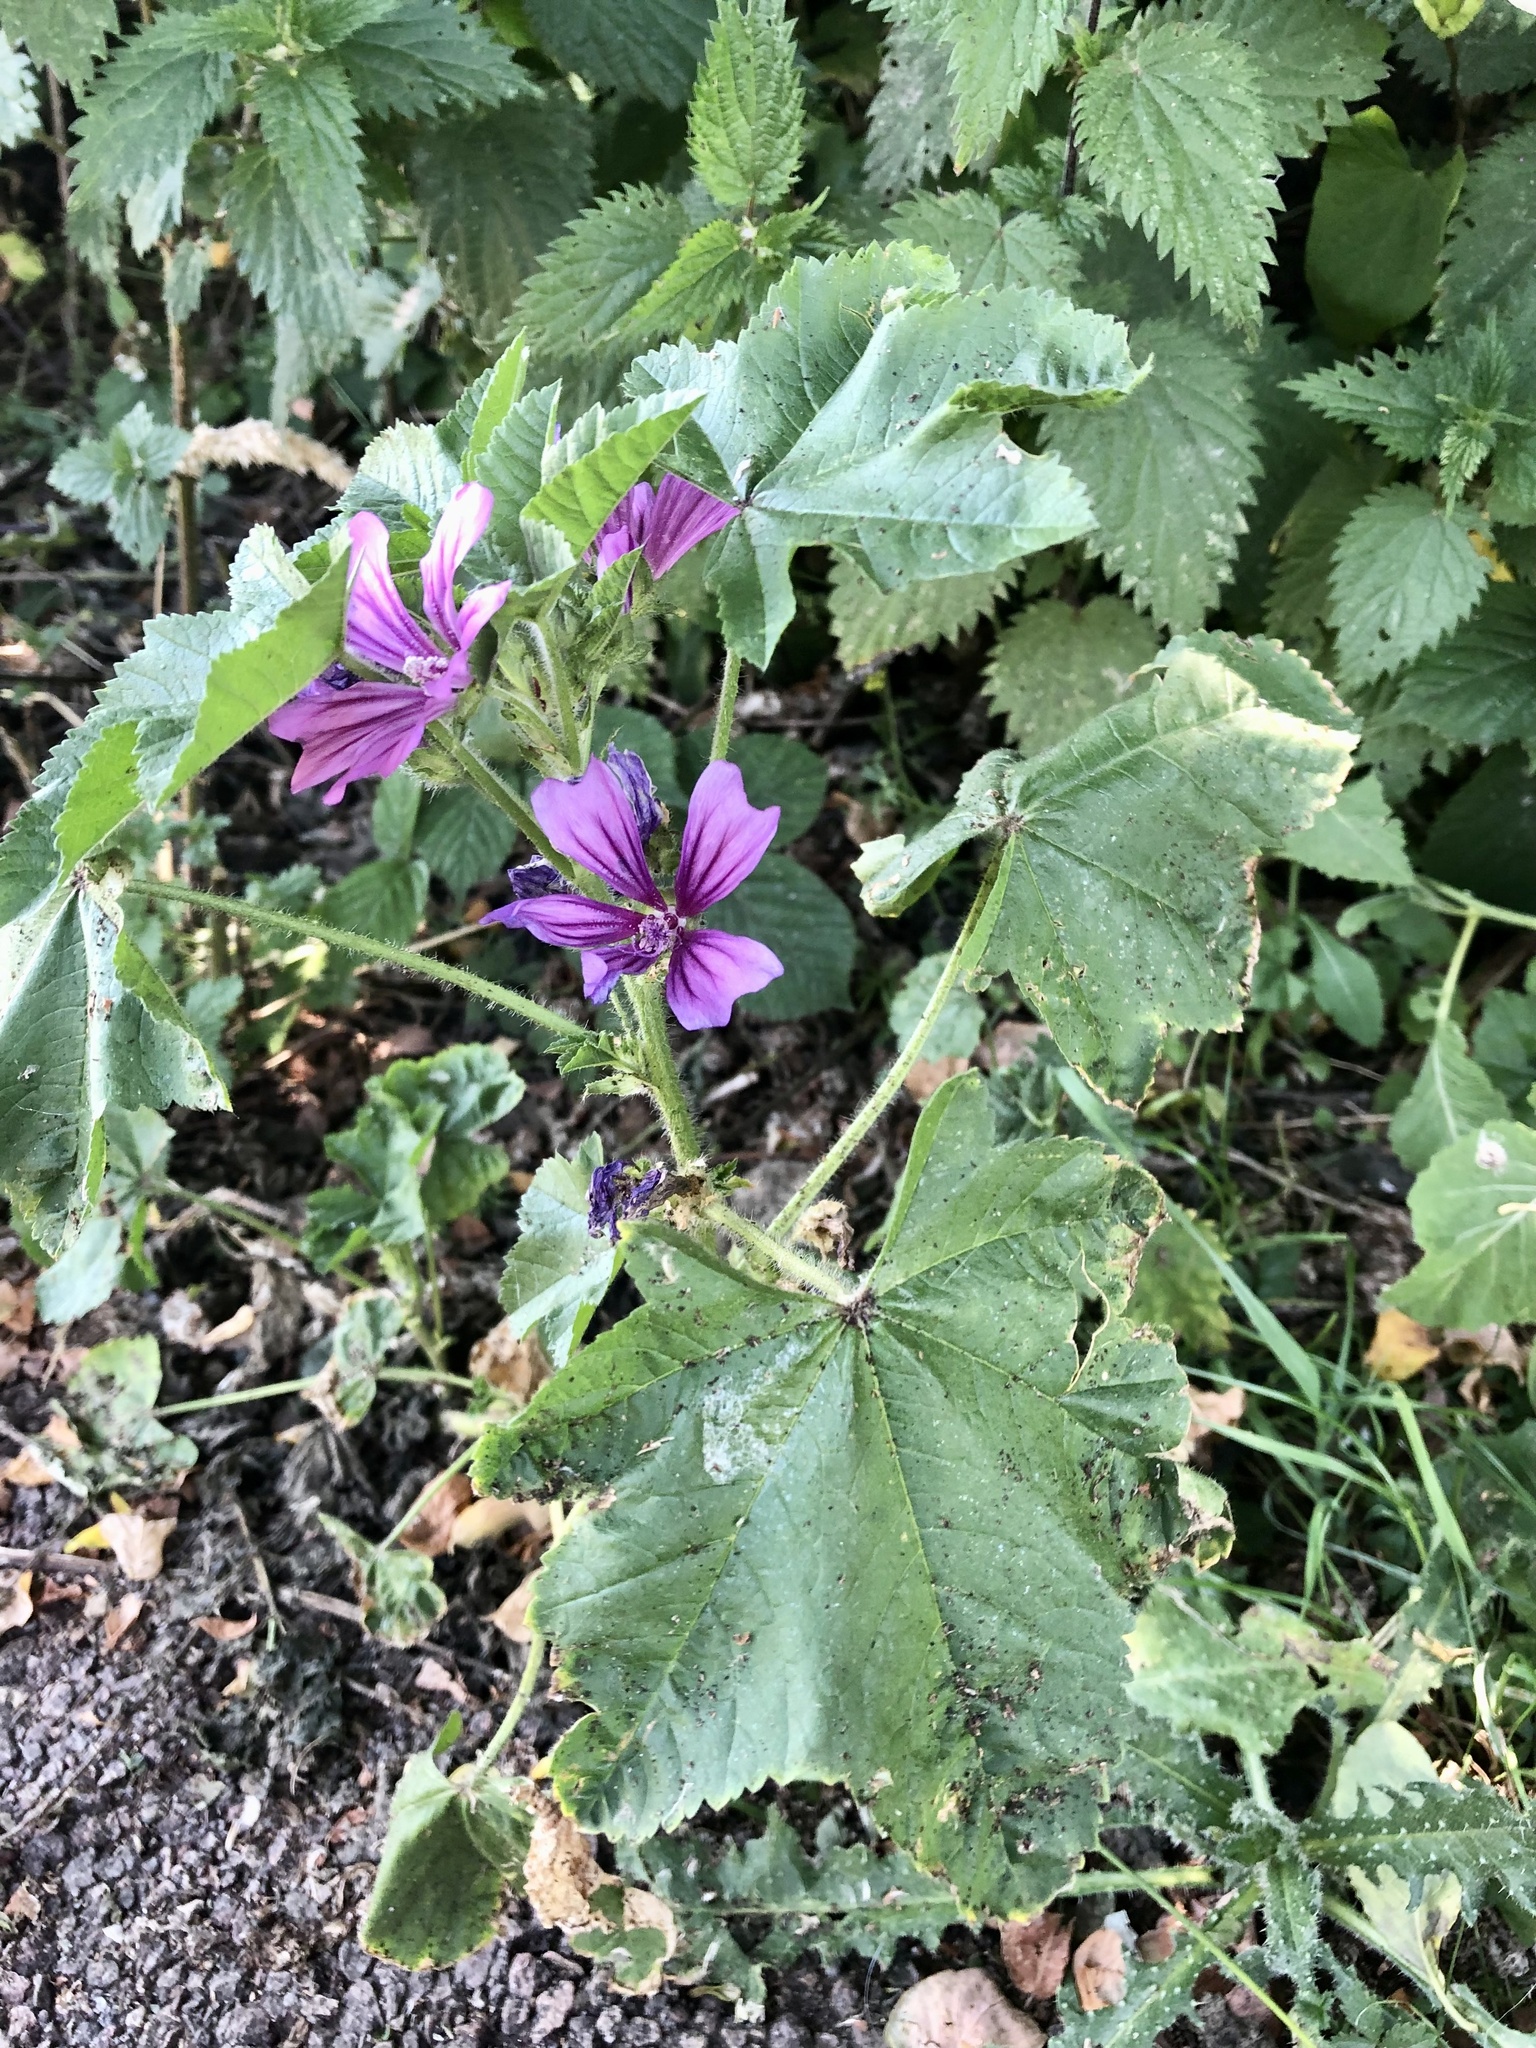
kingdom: Plantae
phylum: Tracheophyta
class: Magnoliopsida
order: Malvales
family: Malvaceae
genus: Malva
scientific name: Malva sylvestris
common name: Common mallow
